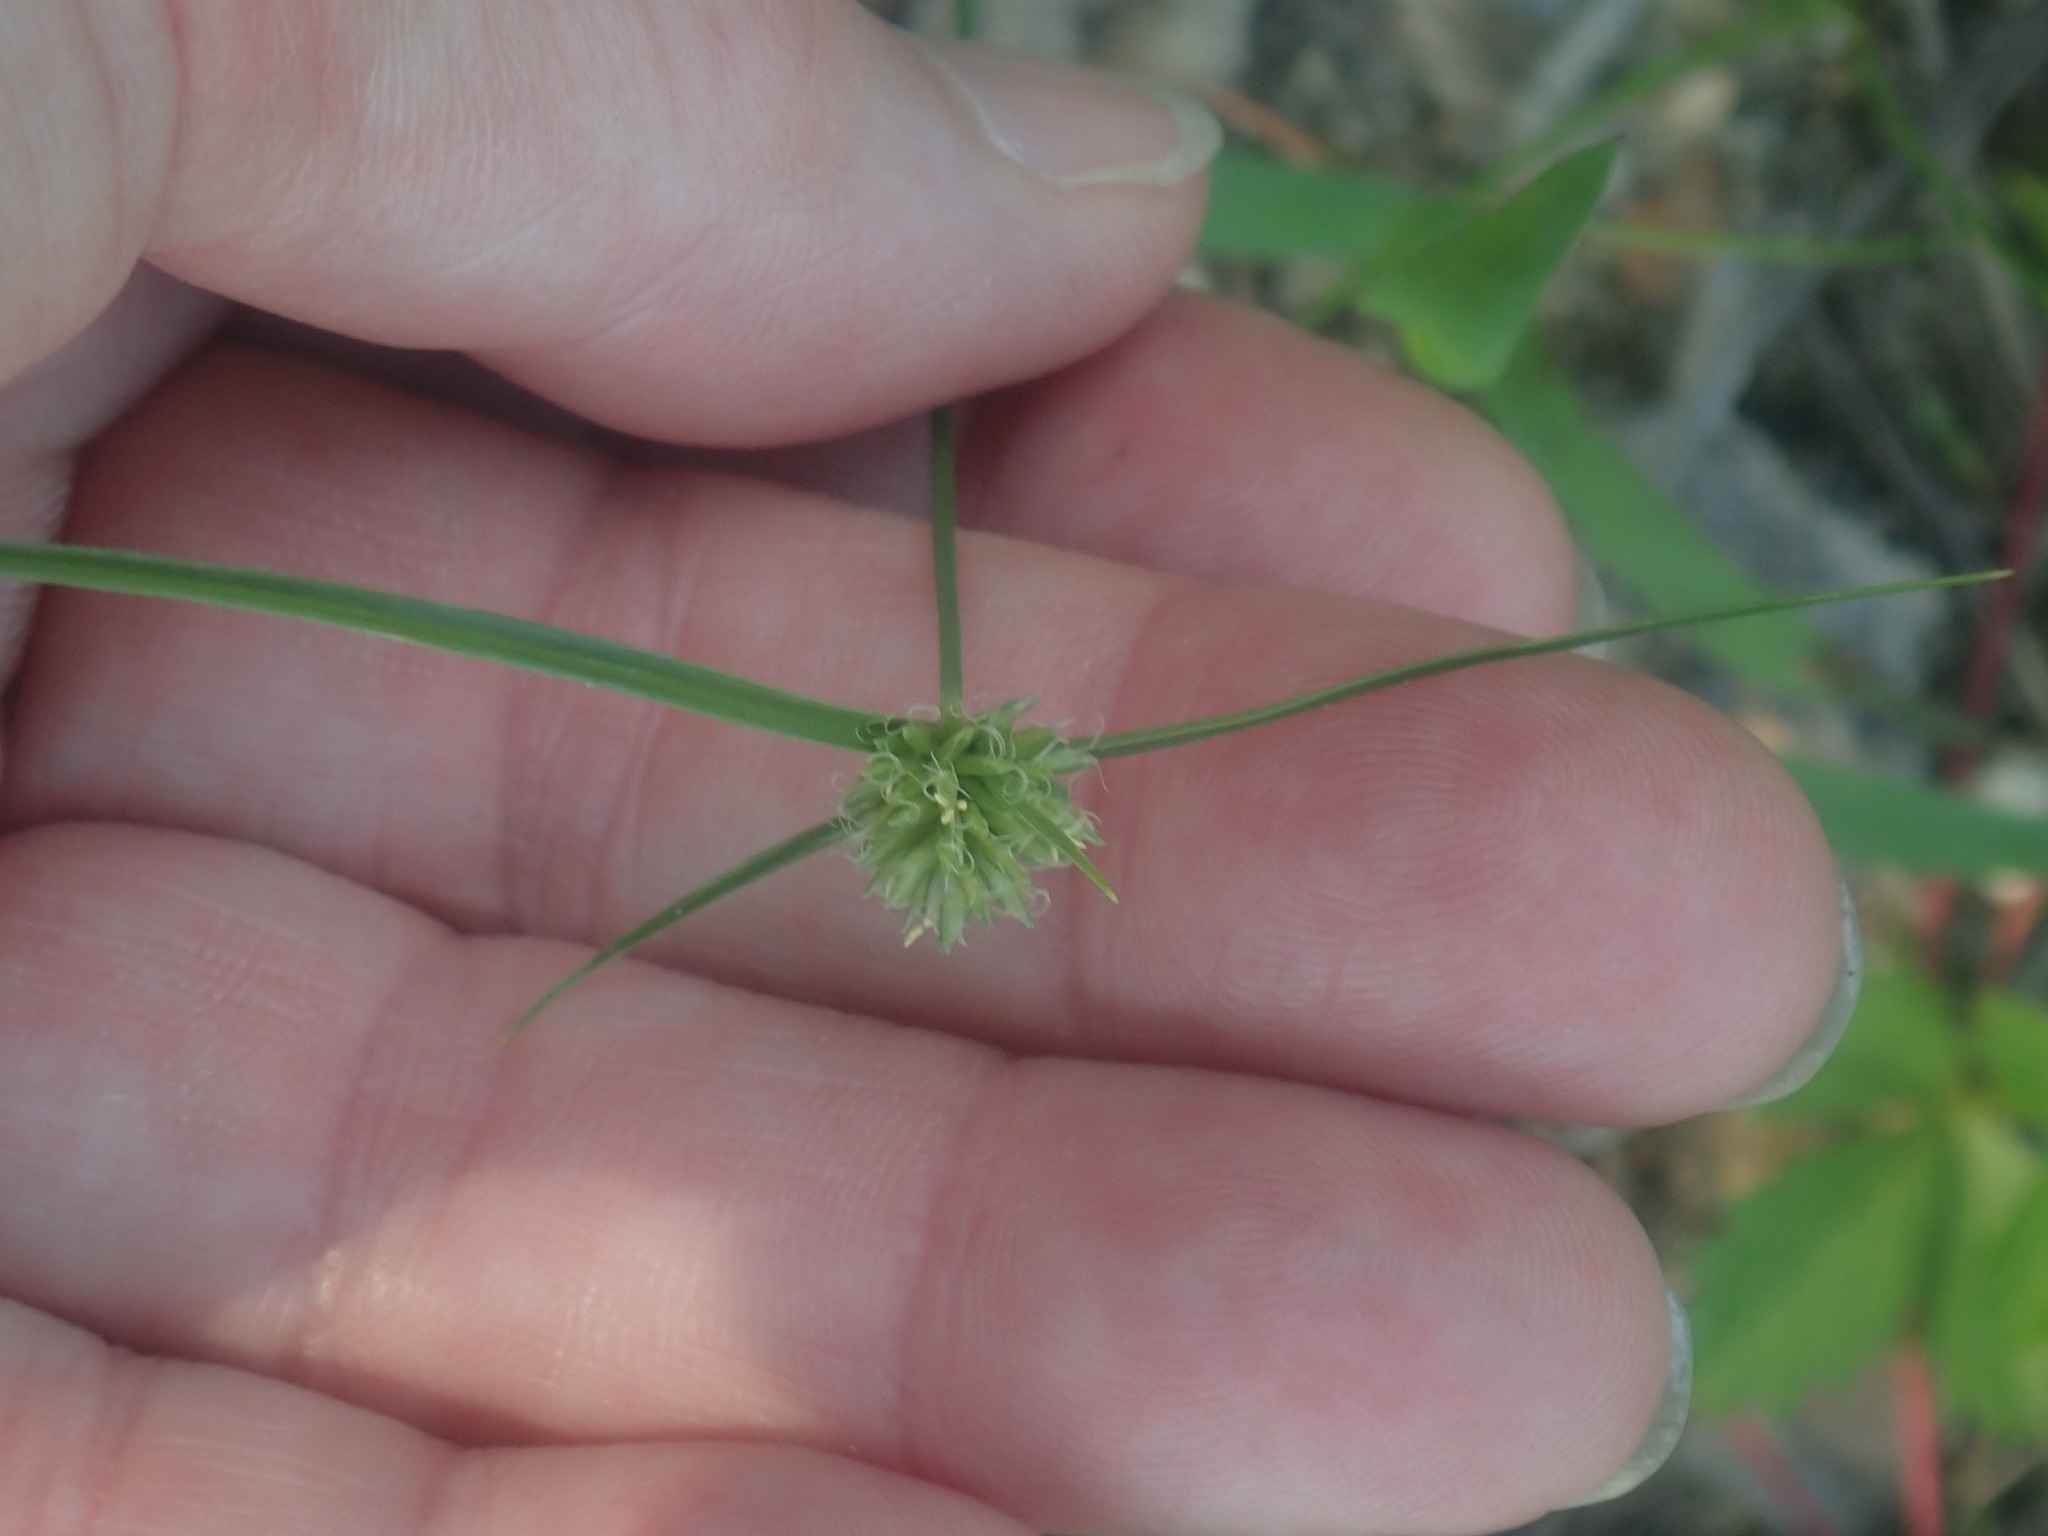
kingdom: Plantae
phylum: Tracheophyta
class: Liliopsida
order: Poales
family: Cyperaceae
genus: Cyperus
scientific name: Cyperus lupulinus
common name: Great plains flatsedge
